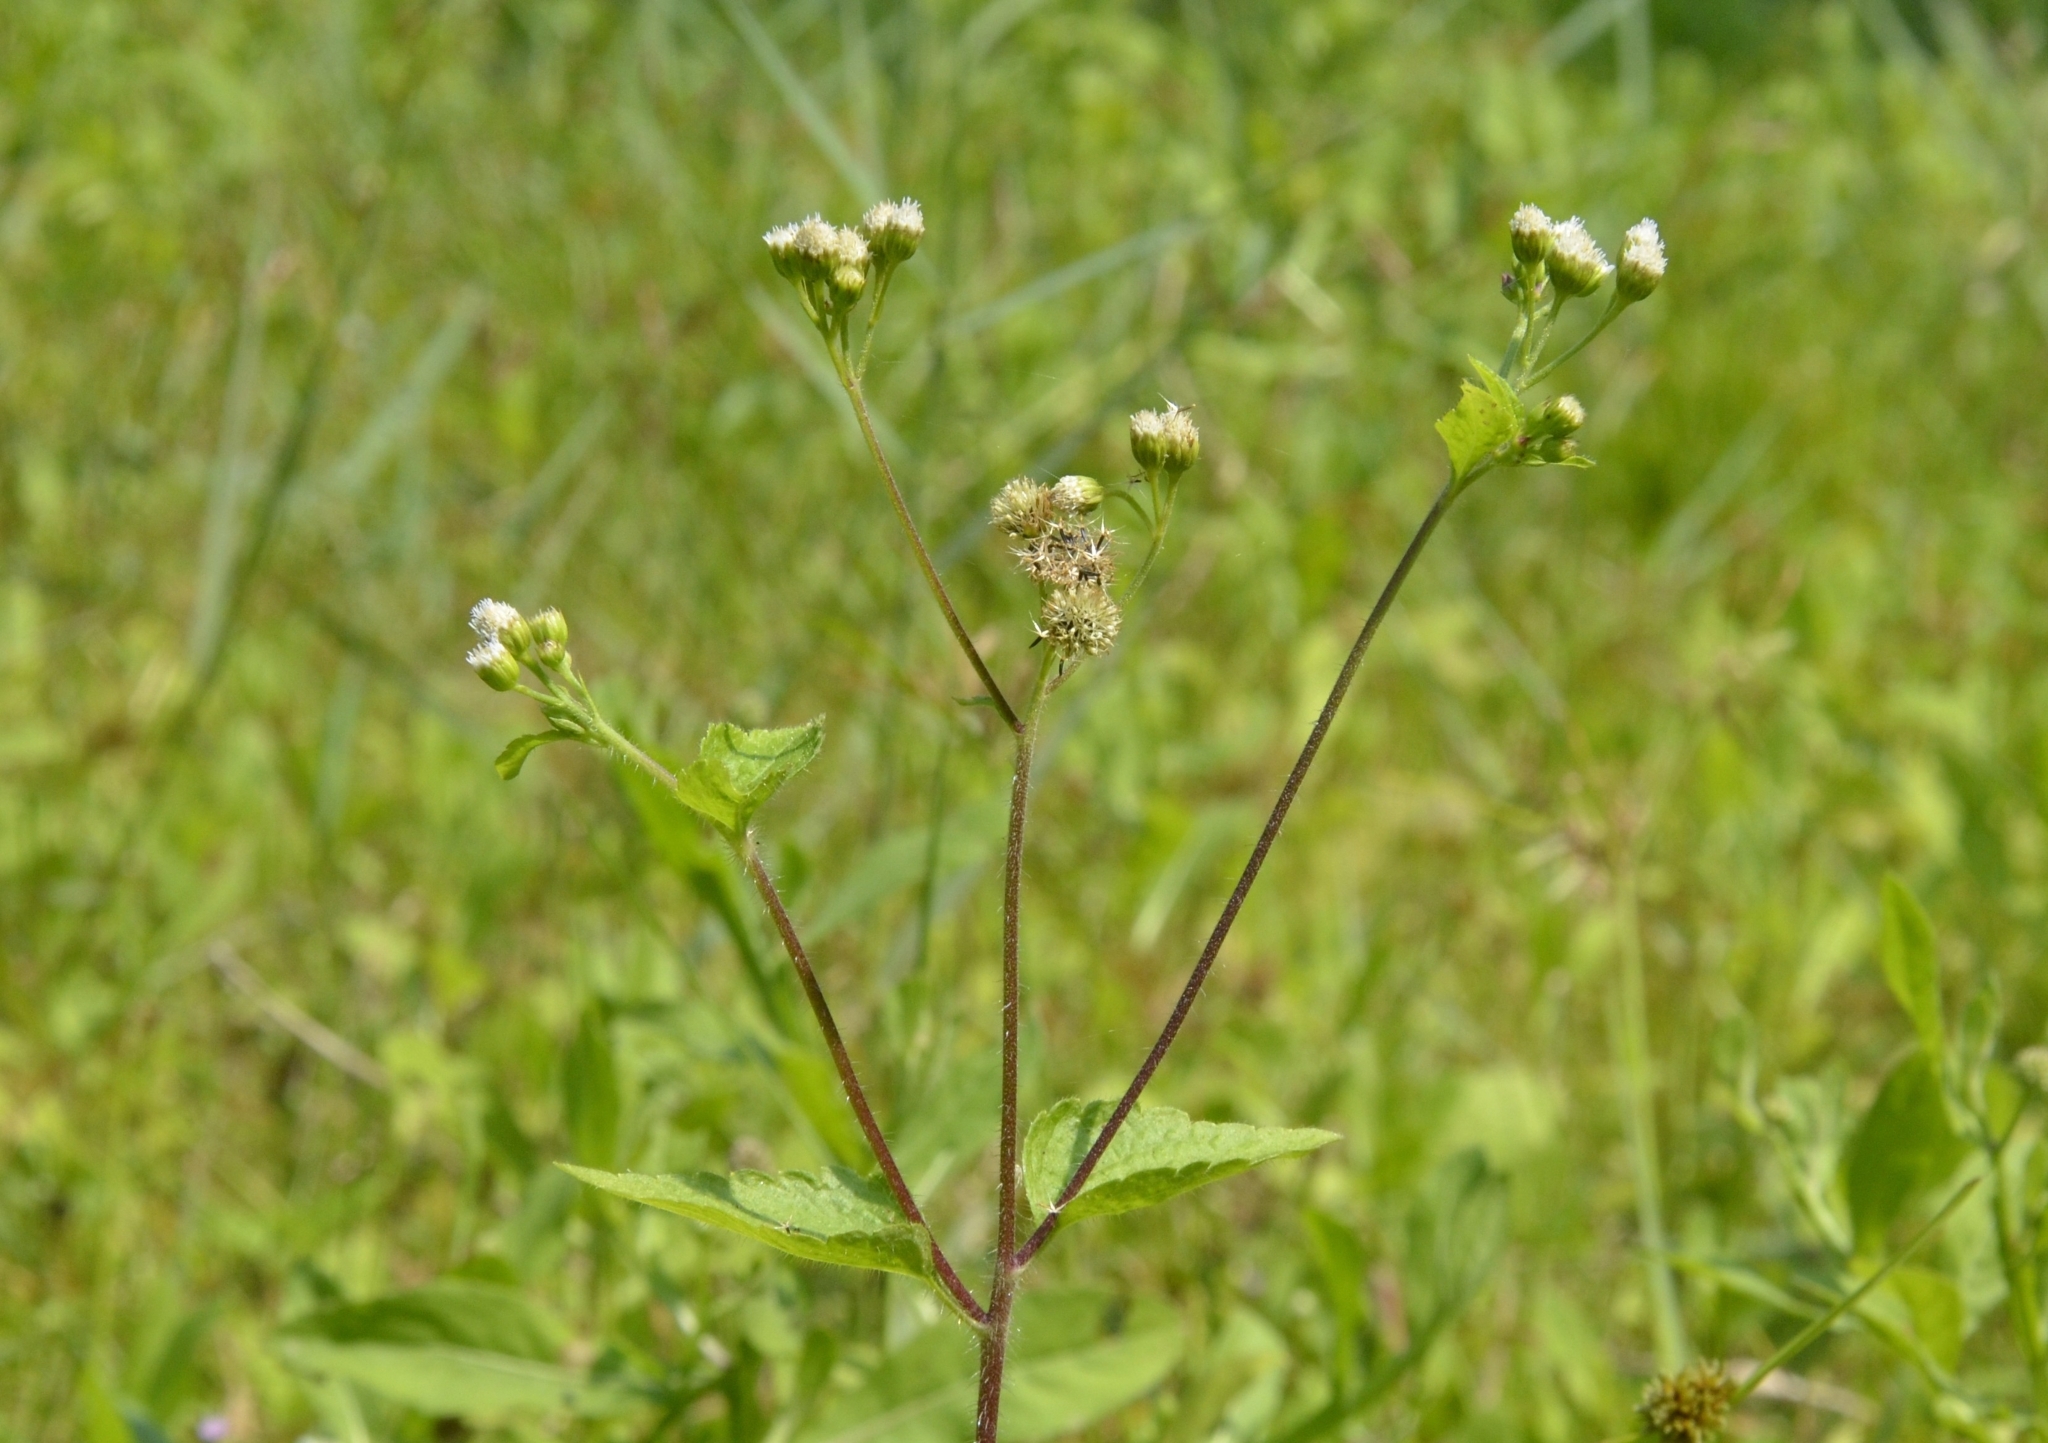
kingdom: Plantae
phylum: Tracheophyta
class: Magnoliopsida
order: Asterales
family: Asteraceae
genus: Ageratum
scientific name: Ageratum conyzoides
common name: Tropical whiteweed
